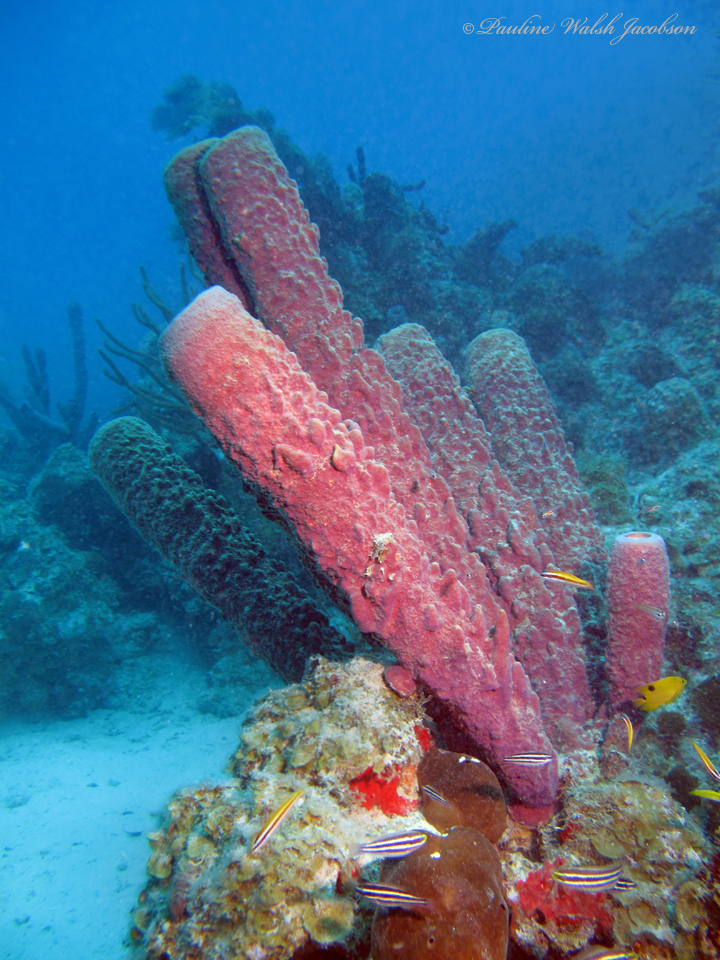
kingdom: Animalia
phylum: Porifera
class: Demospongiae
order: Verongiida
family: Aplysinidae
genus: Aplysina
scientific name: Aplysina archeri
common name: Stove-pipe sponge
